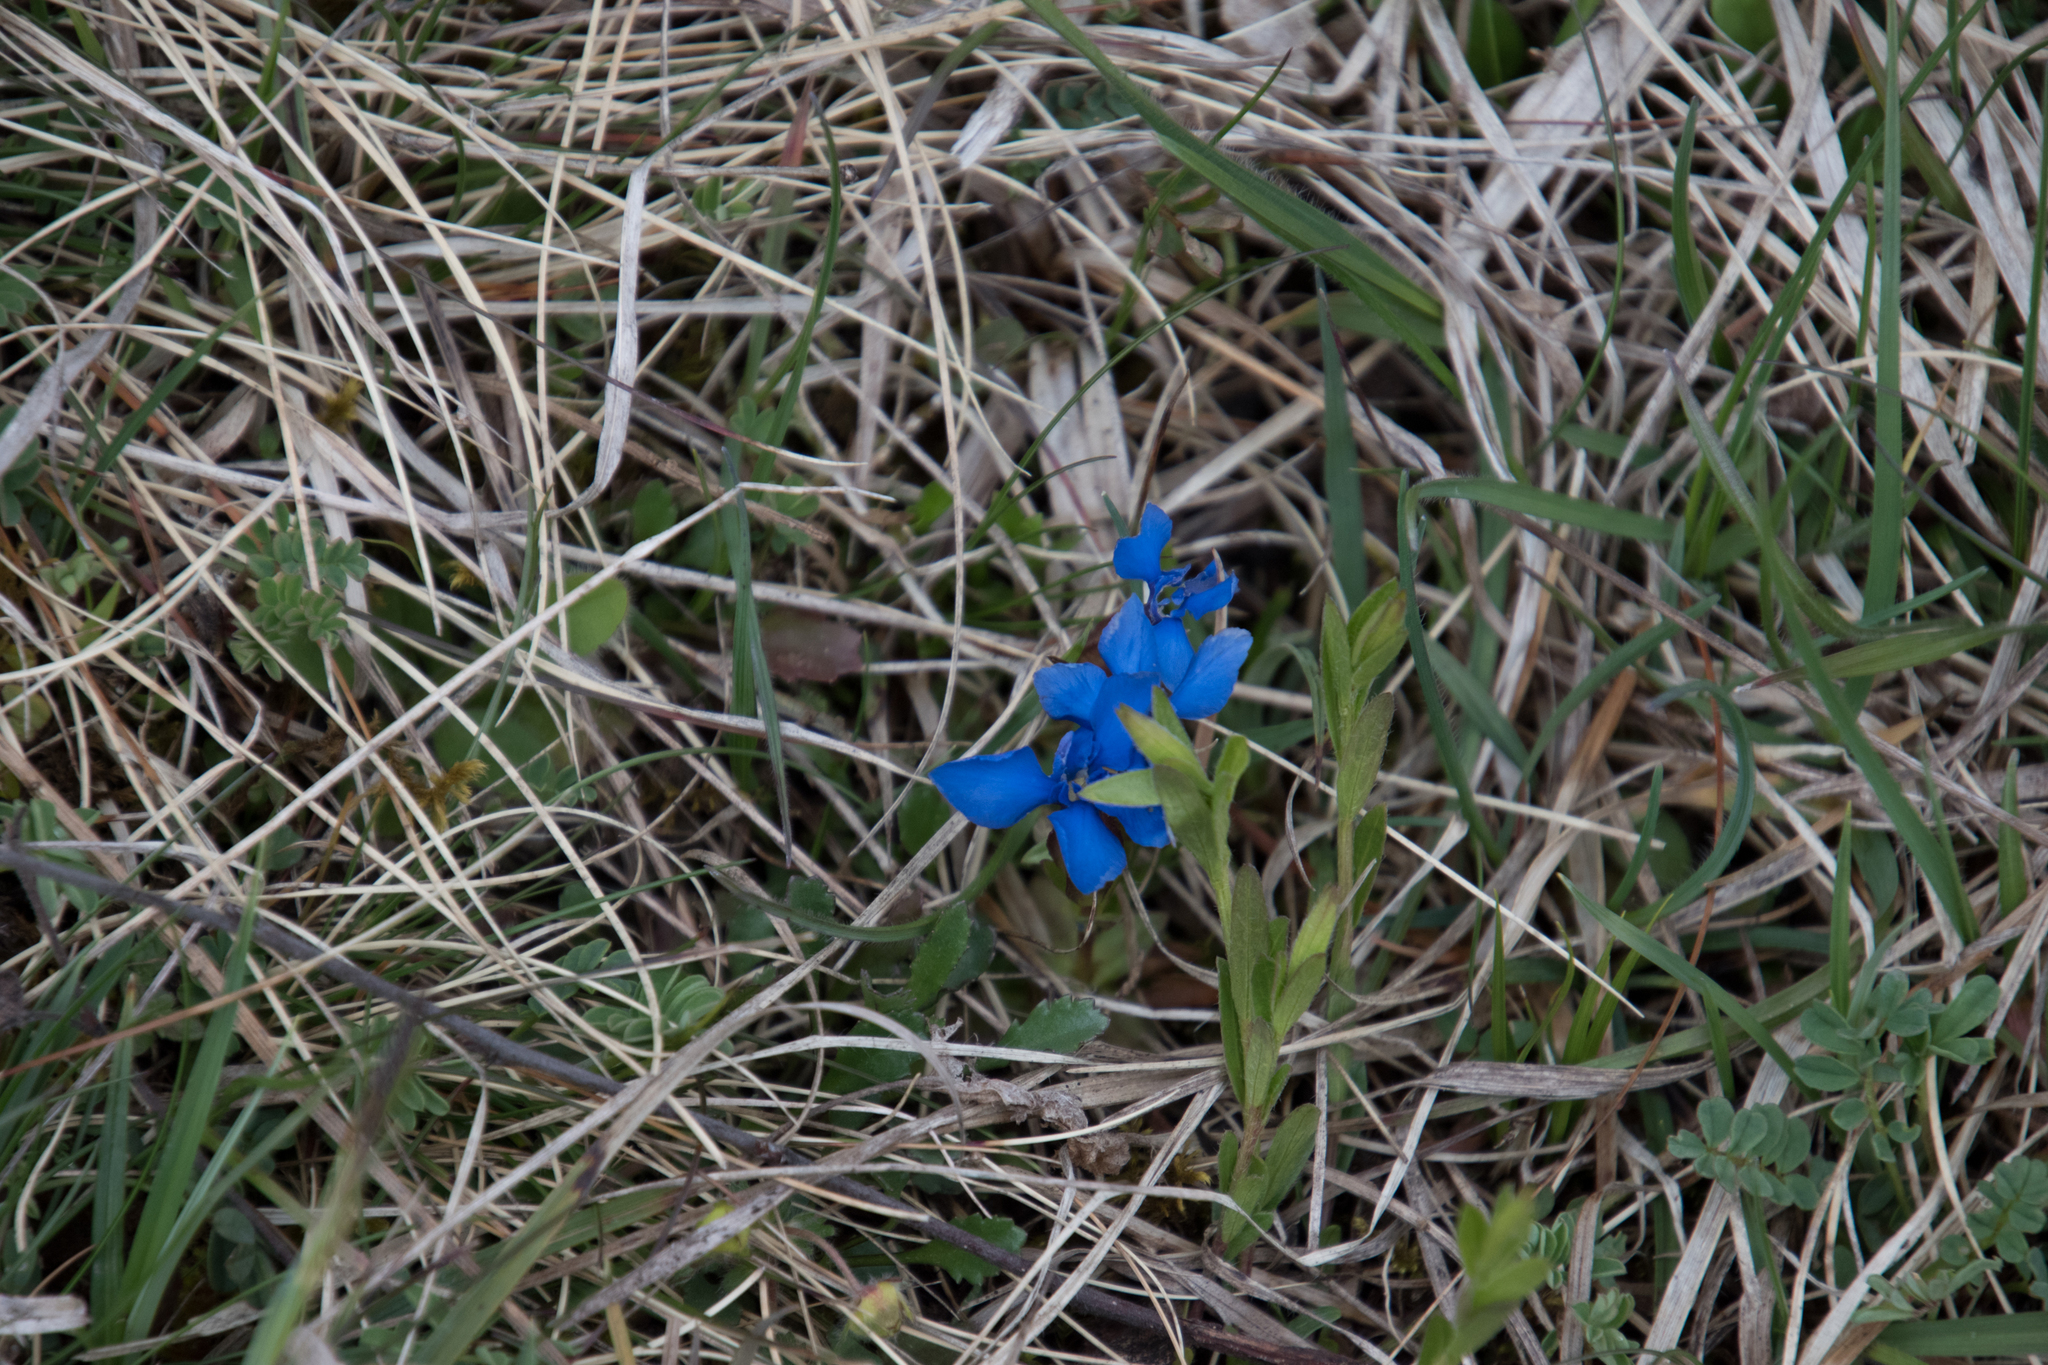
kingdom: Plantae
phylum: Tracheophyta
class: Magnoliopsida
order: Gentianales
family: Gentianaceae
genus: Gentiana
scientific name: Gentiana verna
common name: Spring gentian
